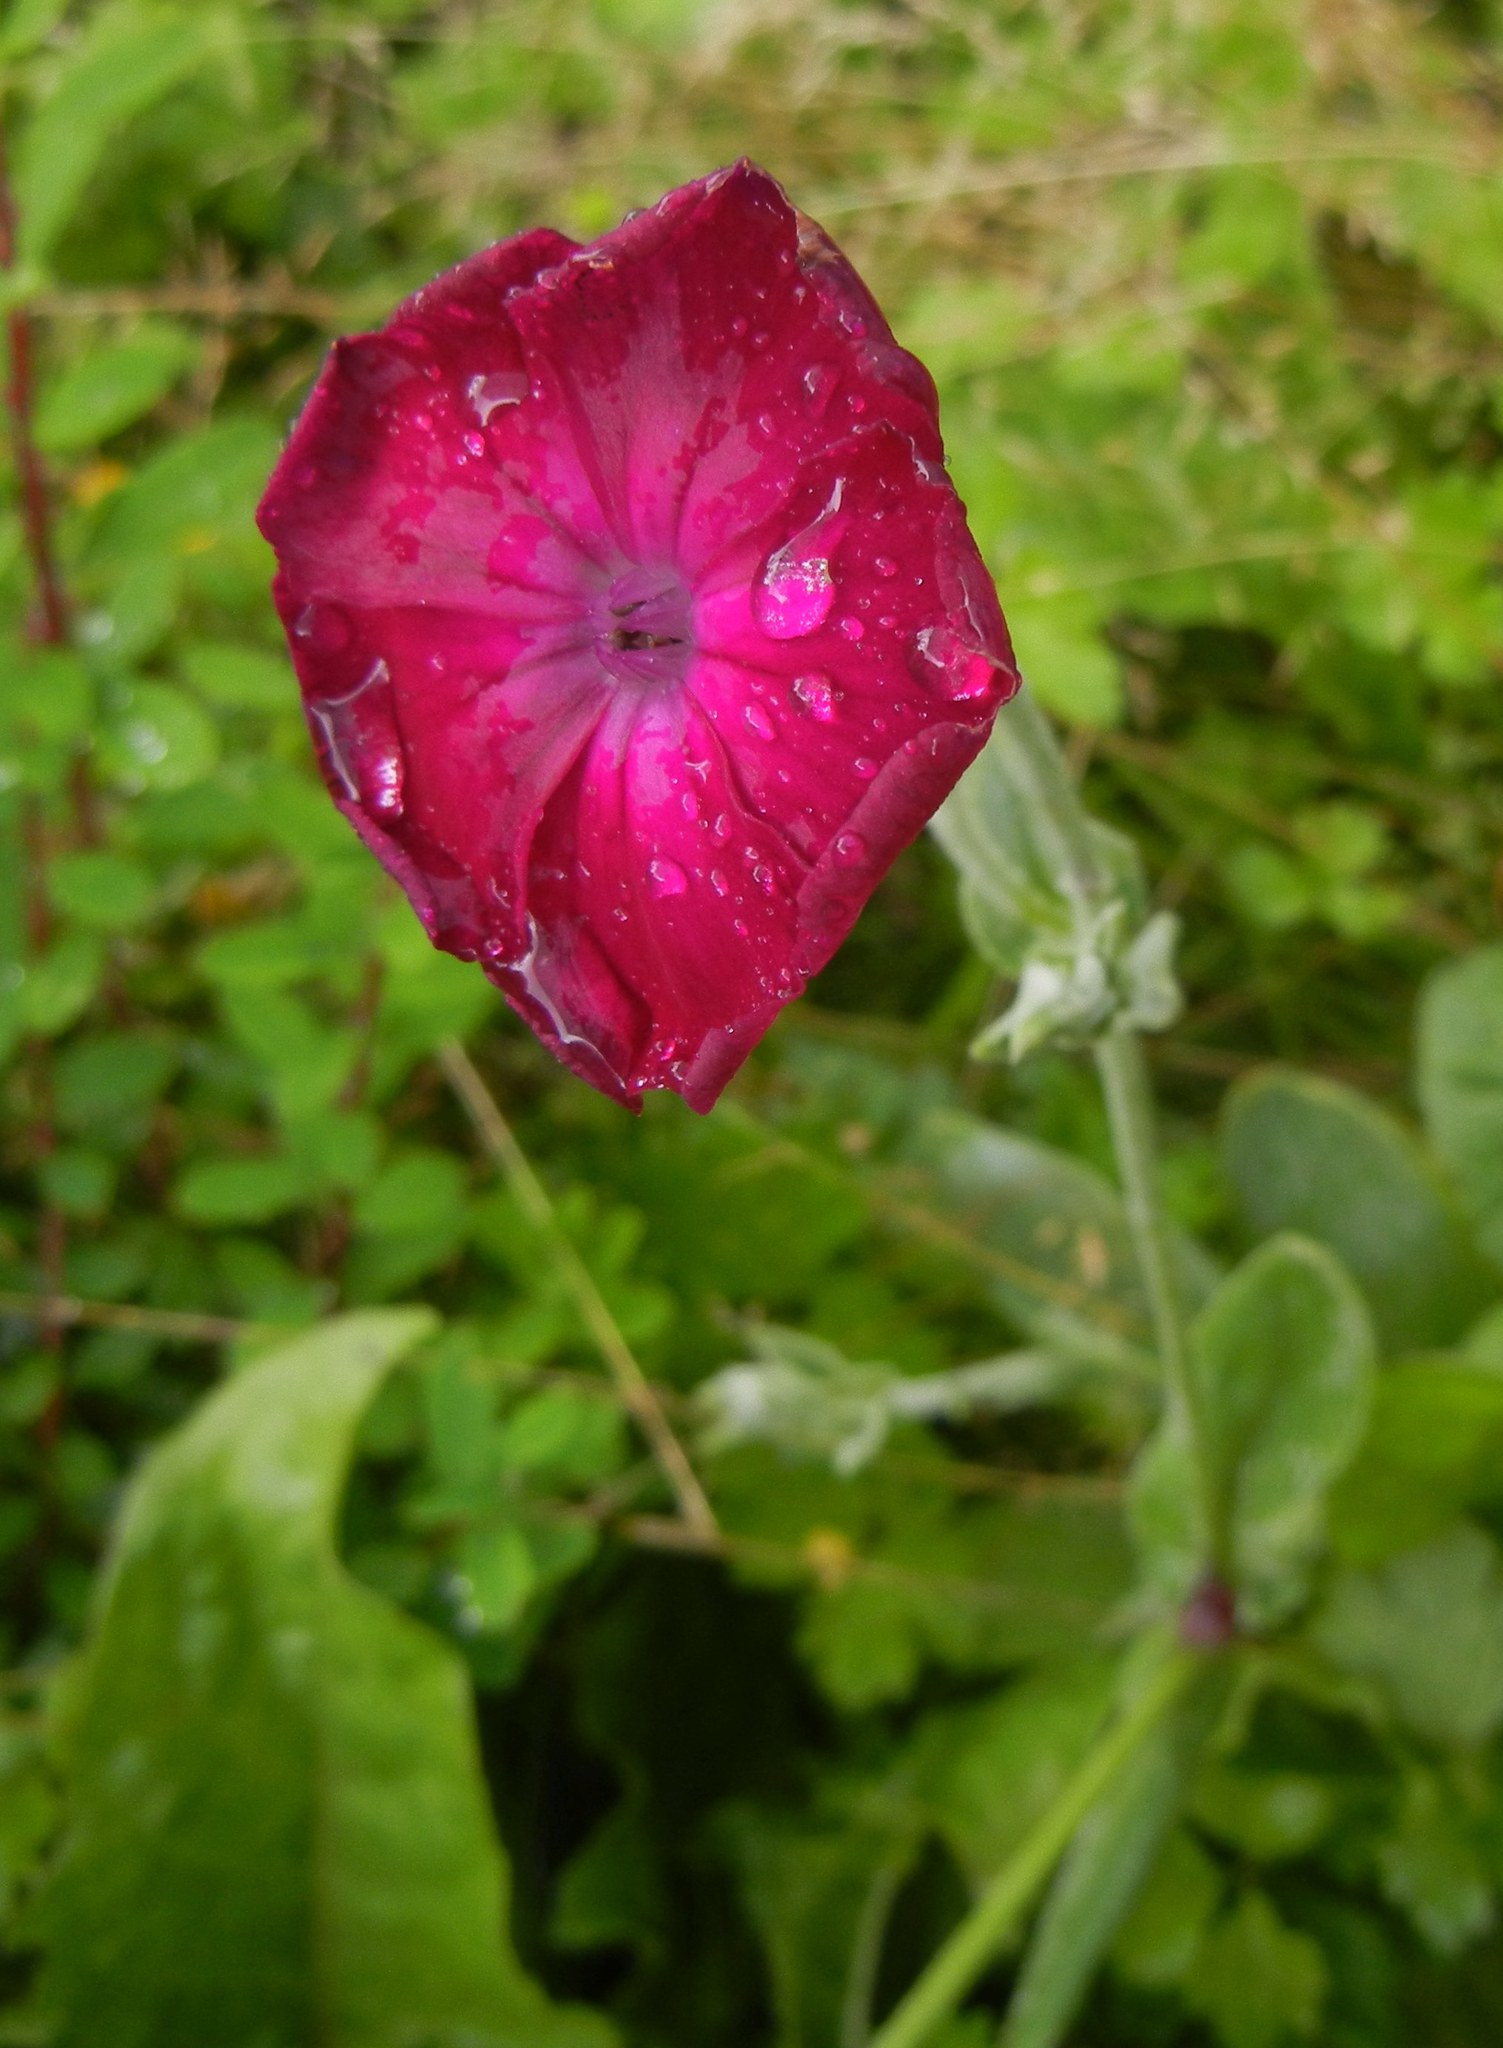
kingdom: Plantae
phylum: Tracheophyta
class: Magnoliopsida
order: Caryophyllales
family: Caryophyllaceae
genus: Silene
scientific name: Silene coronaria
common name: Rose campion
